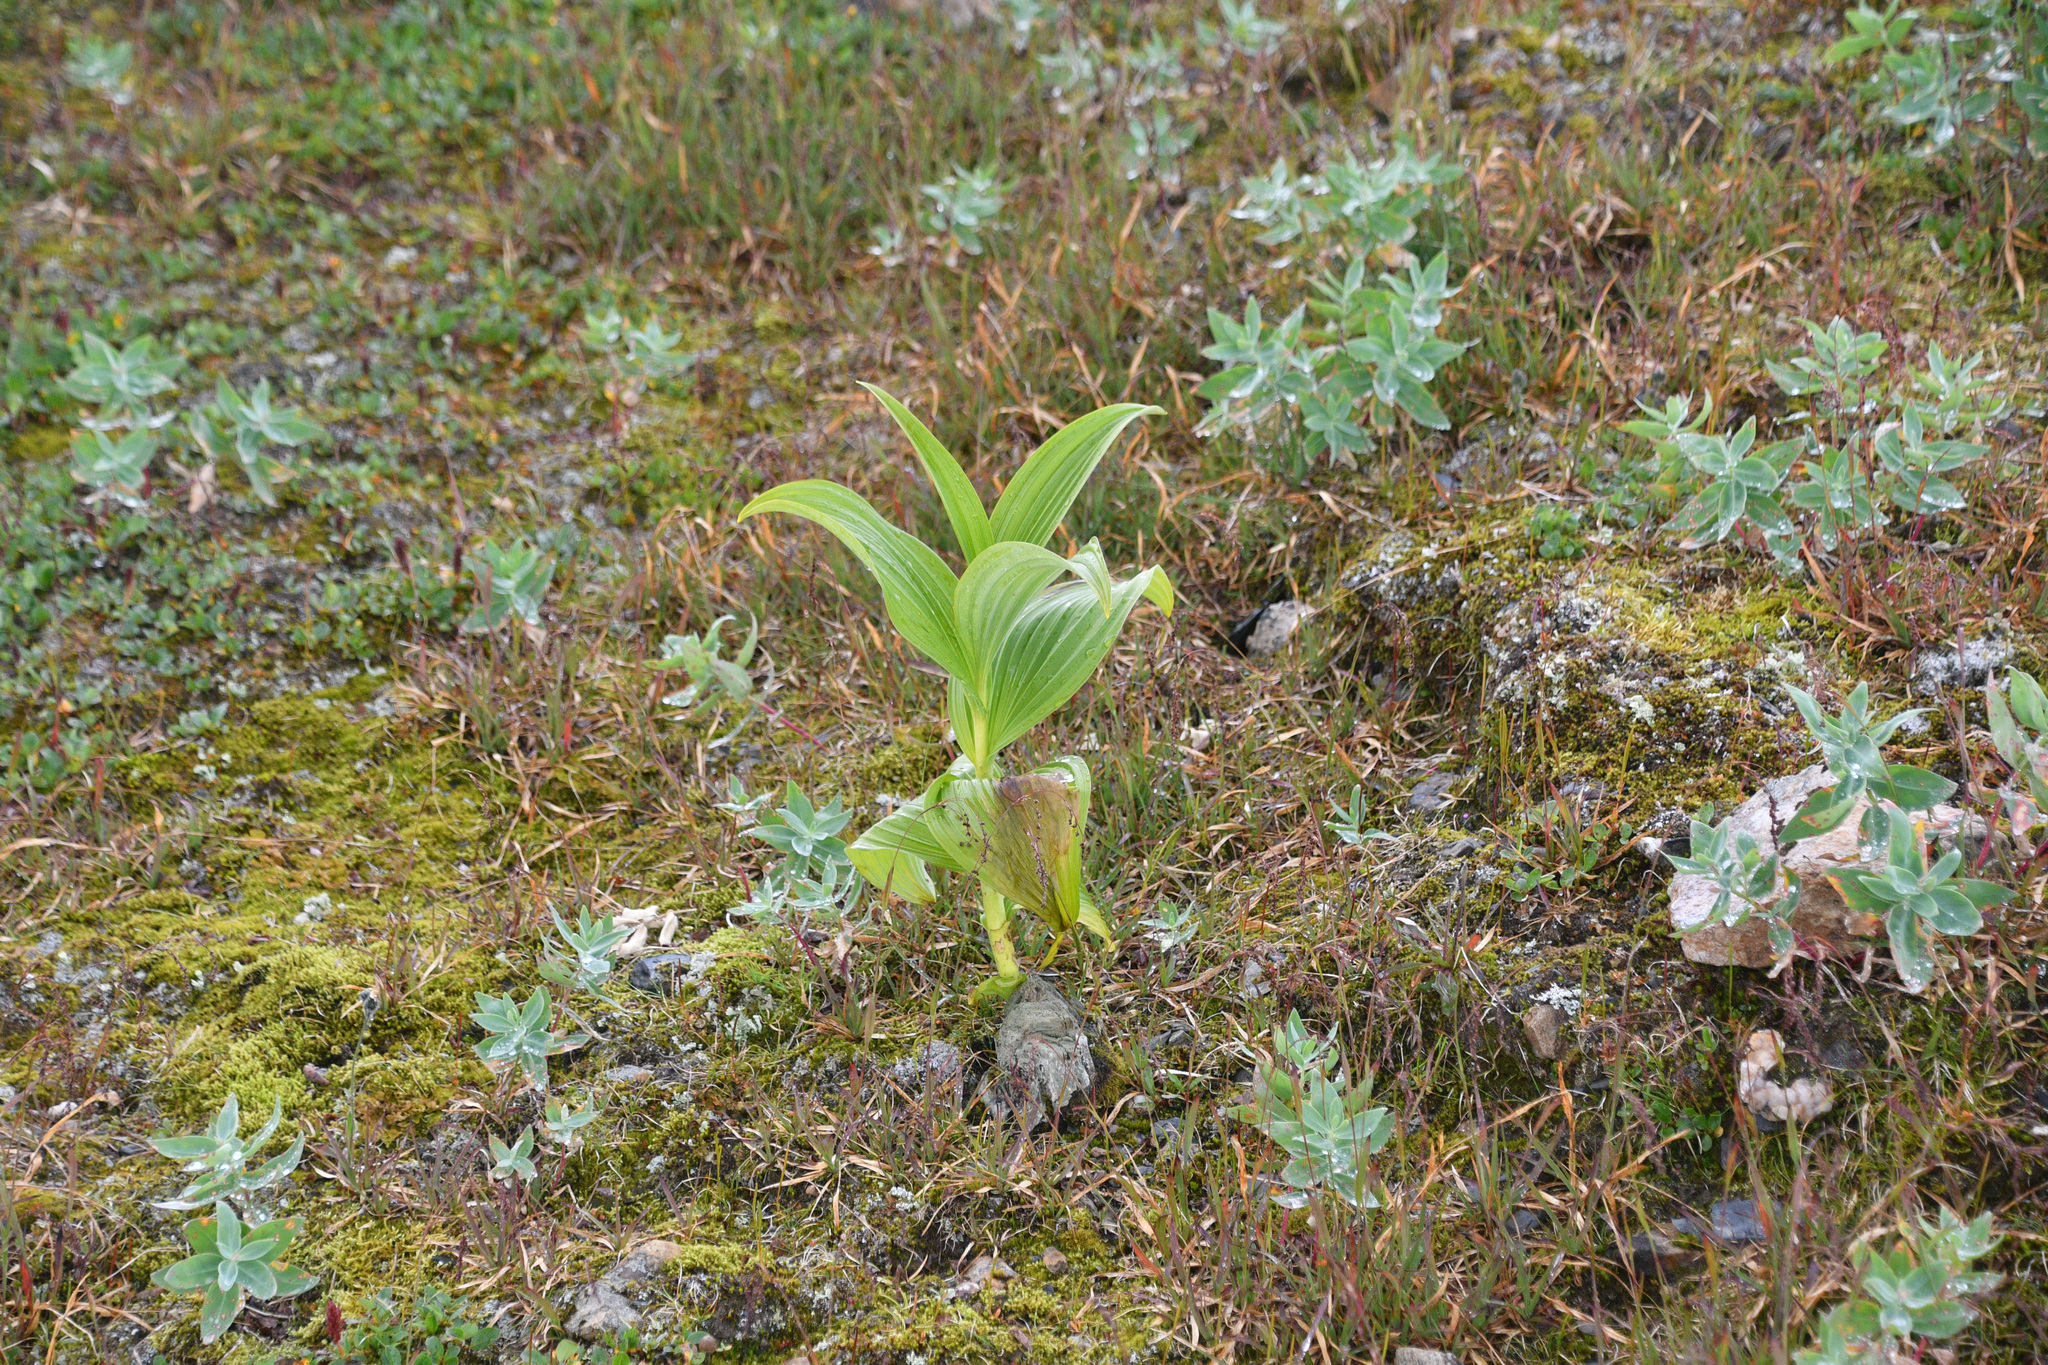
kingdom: Plantae
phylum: Tracheophyta
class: Liliopsida
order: Liliales
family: Melanthiaceae
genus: Veratrum
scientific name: Veratrum viride
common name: American false hellebore
